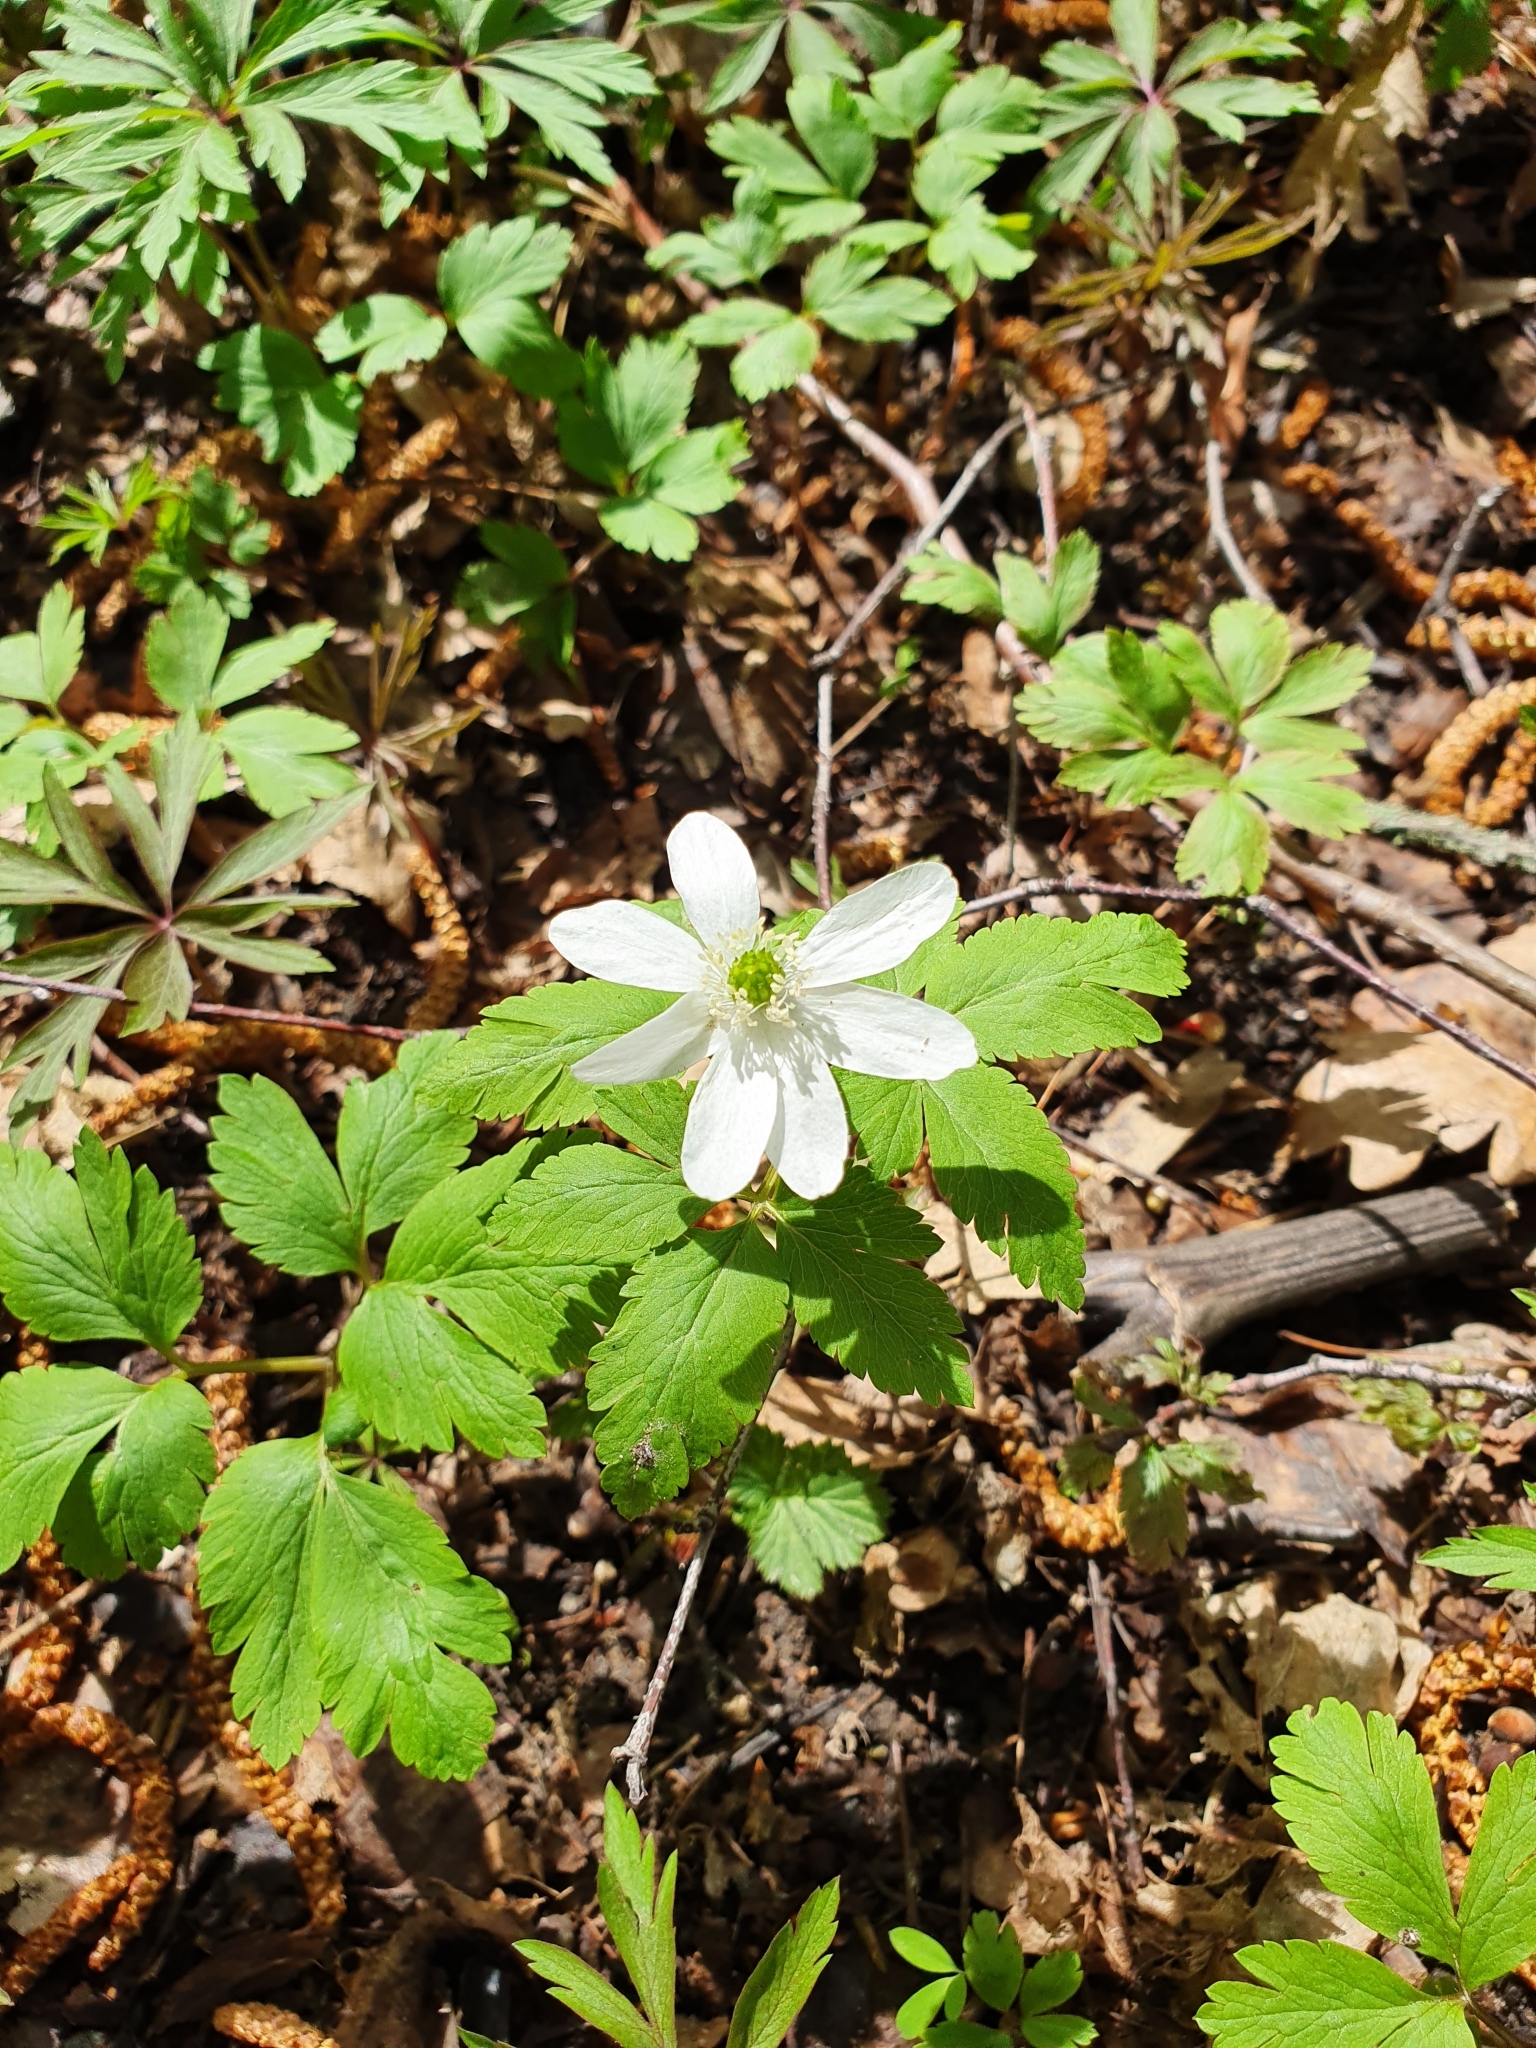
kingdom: Plantae
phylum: Tracheophyta
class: Magnoliopsida
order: Ranunculales
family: Ranunculaceae
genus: Anemone
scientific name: Anemone altaica
